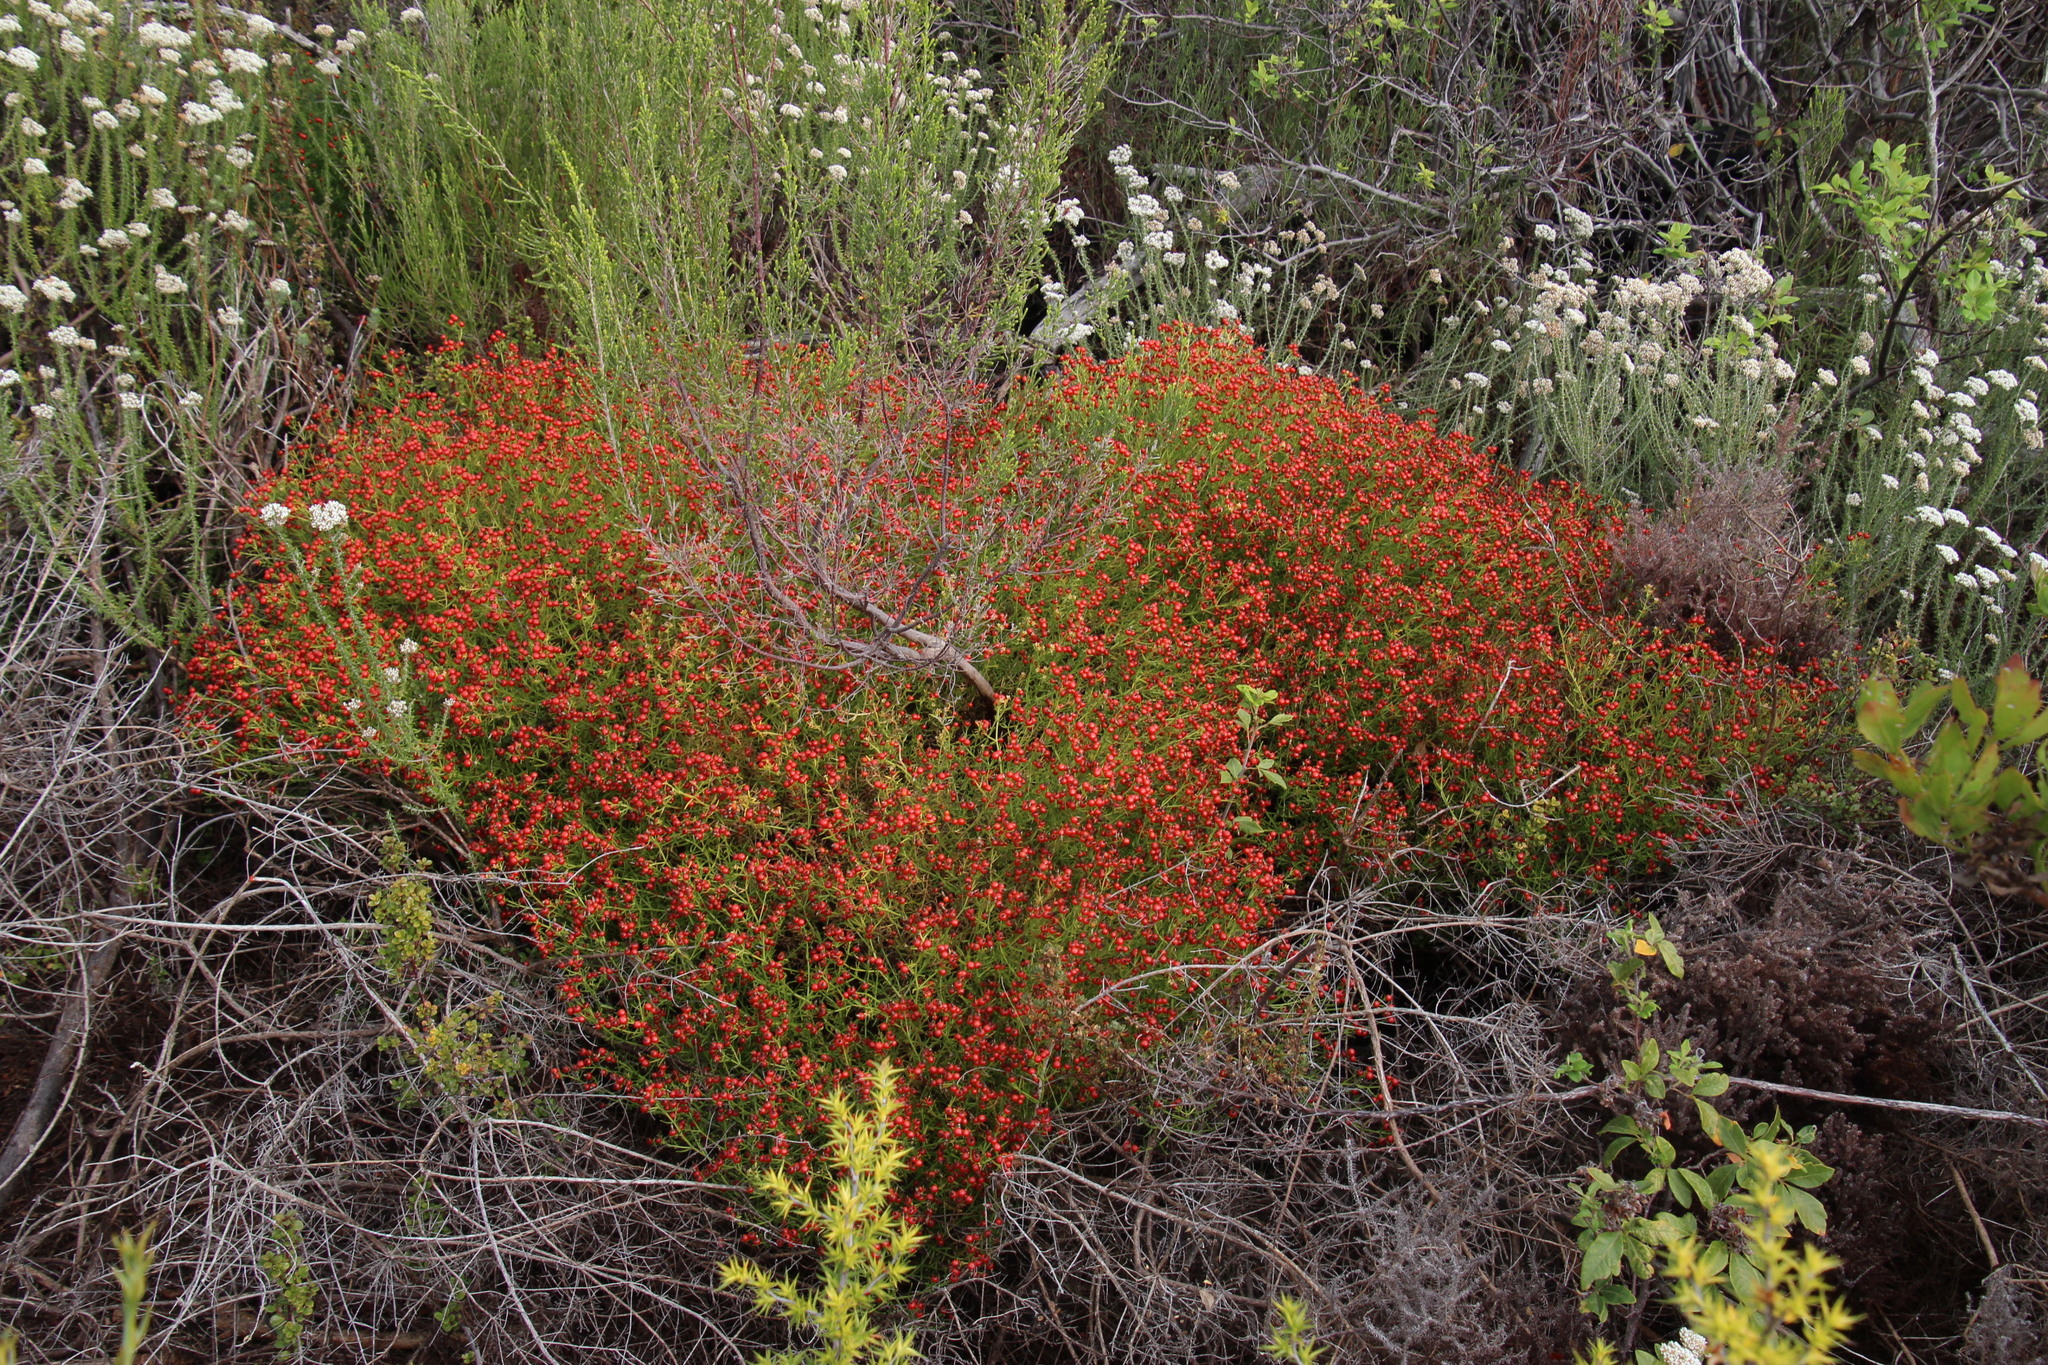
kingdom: Plantae
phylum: Tracheophyta
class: Magnoliopsida
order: Gentianales
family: Gentianaceae
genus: Chironia
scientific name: Chironia baccifera
